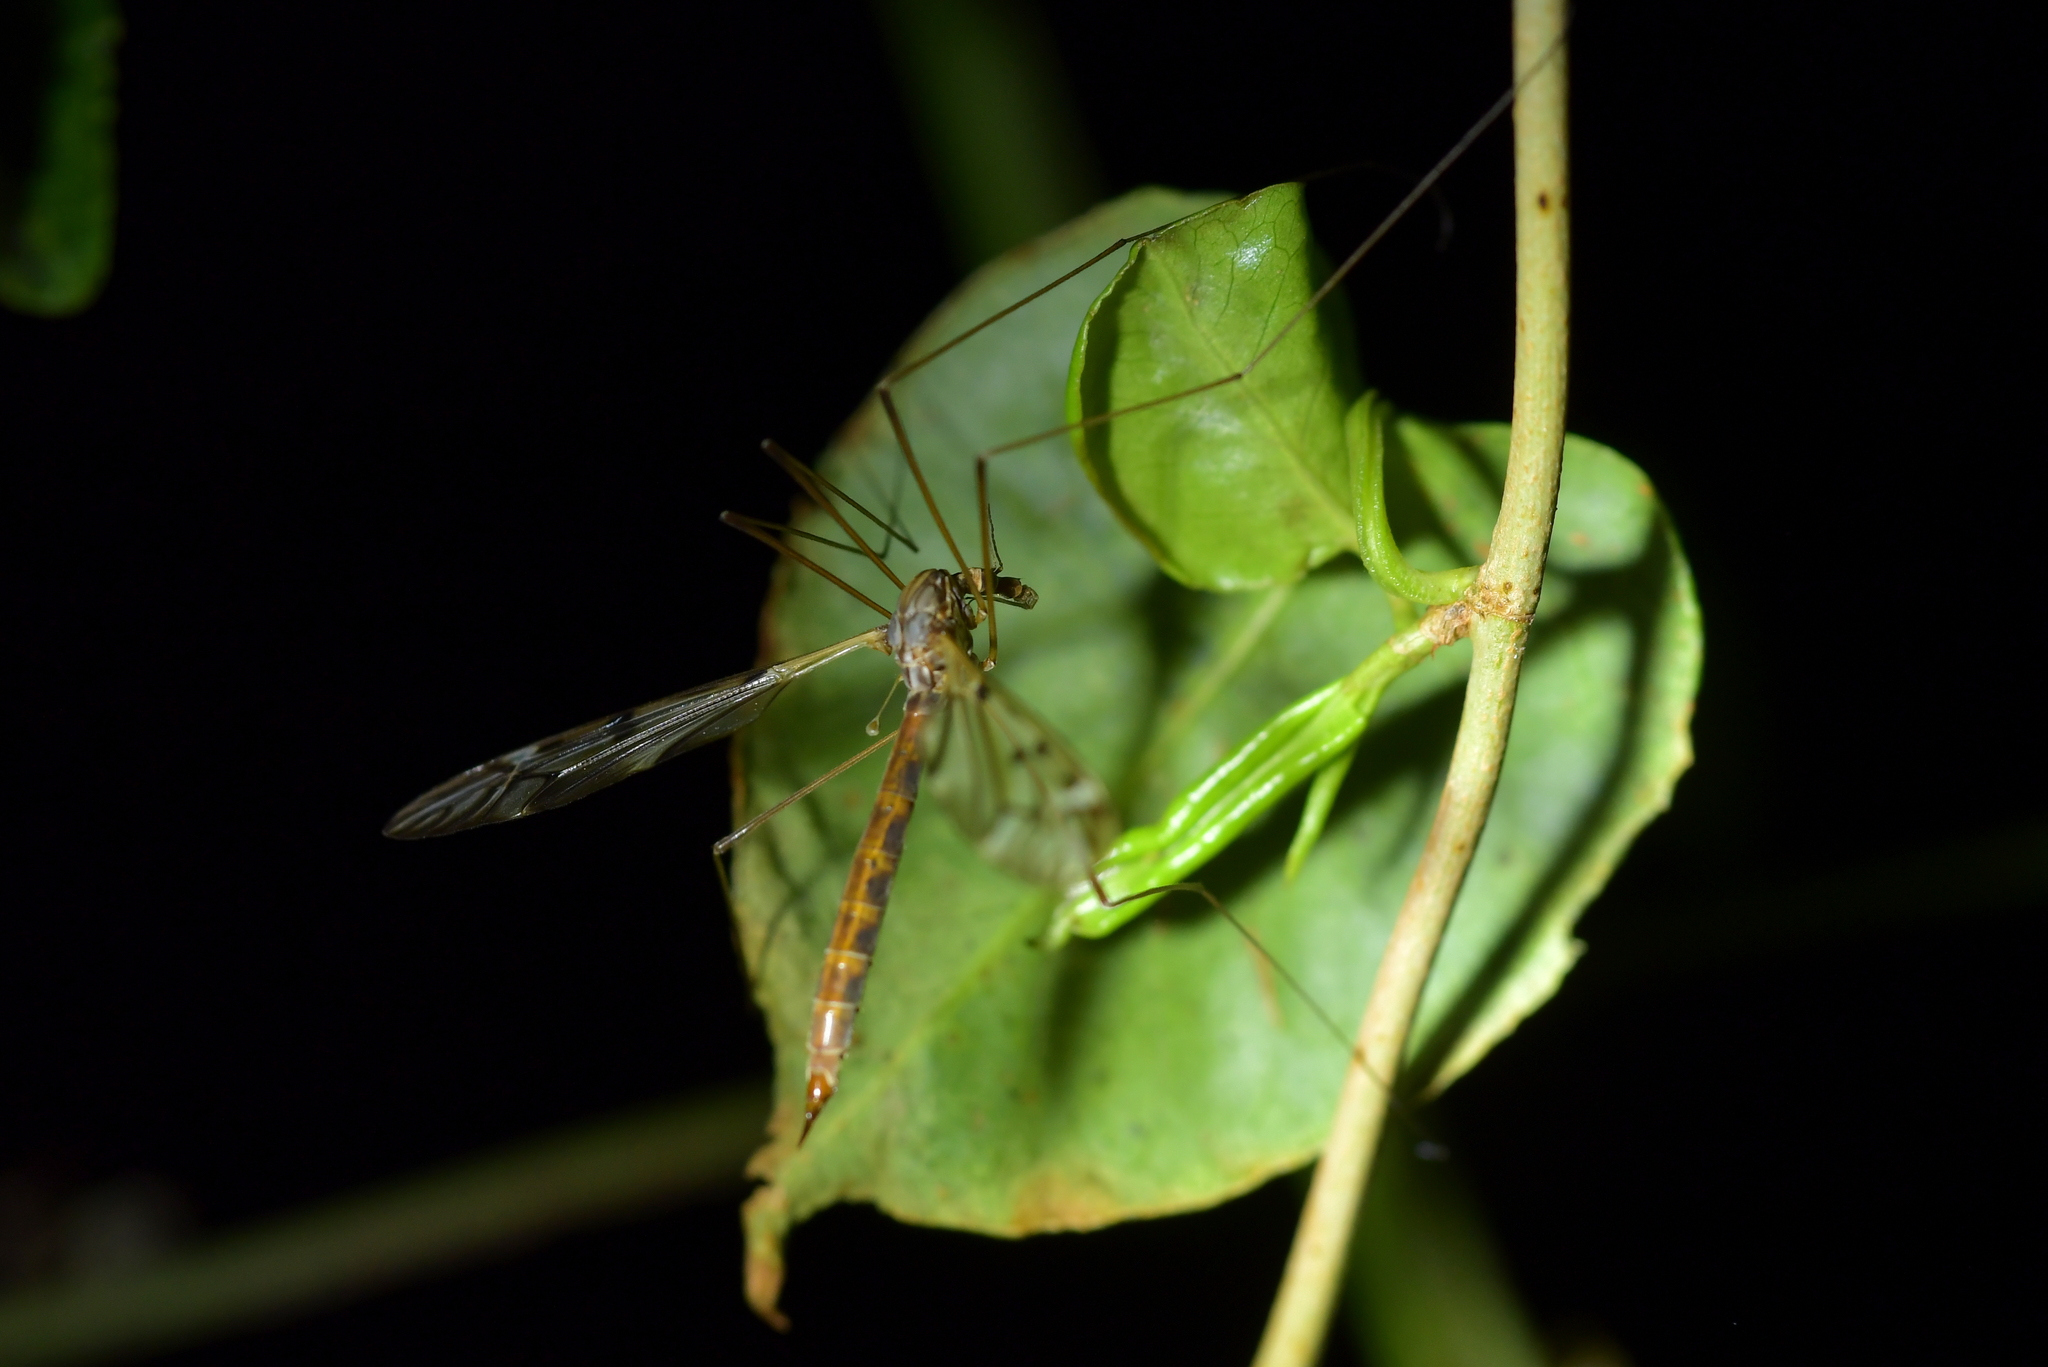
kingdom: Animalia
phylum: Arthropoda
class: Insecta
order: Diptera
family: Tipulidae
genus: Zelandotipula
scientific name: Zelandotipula novarae
